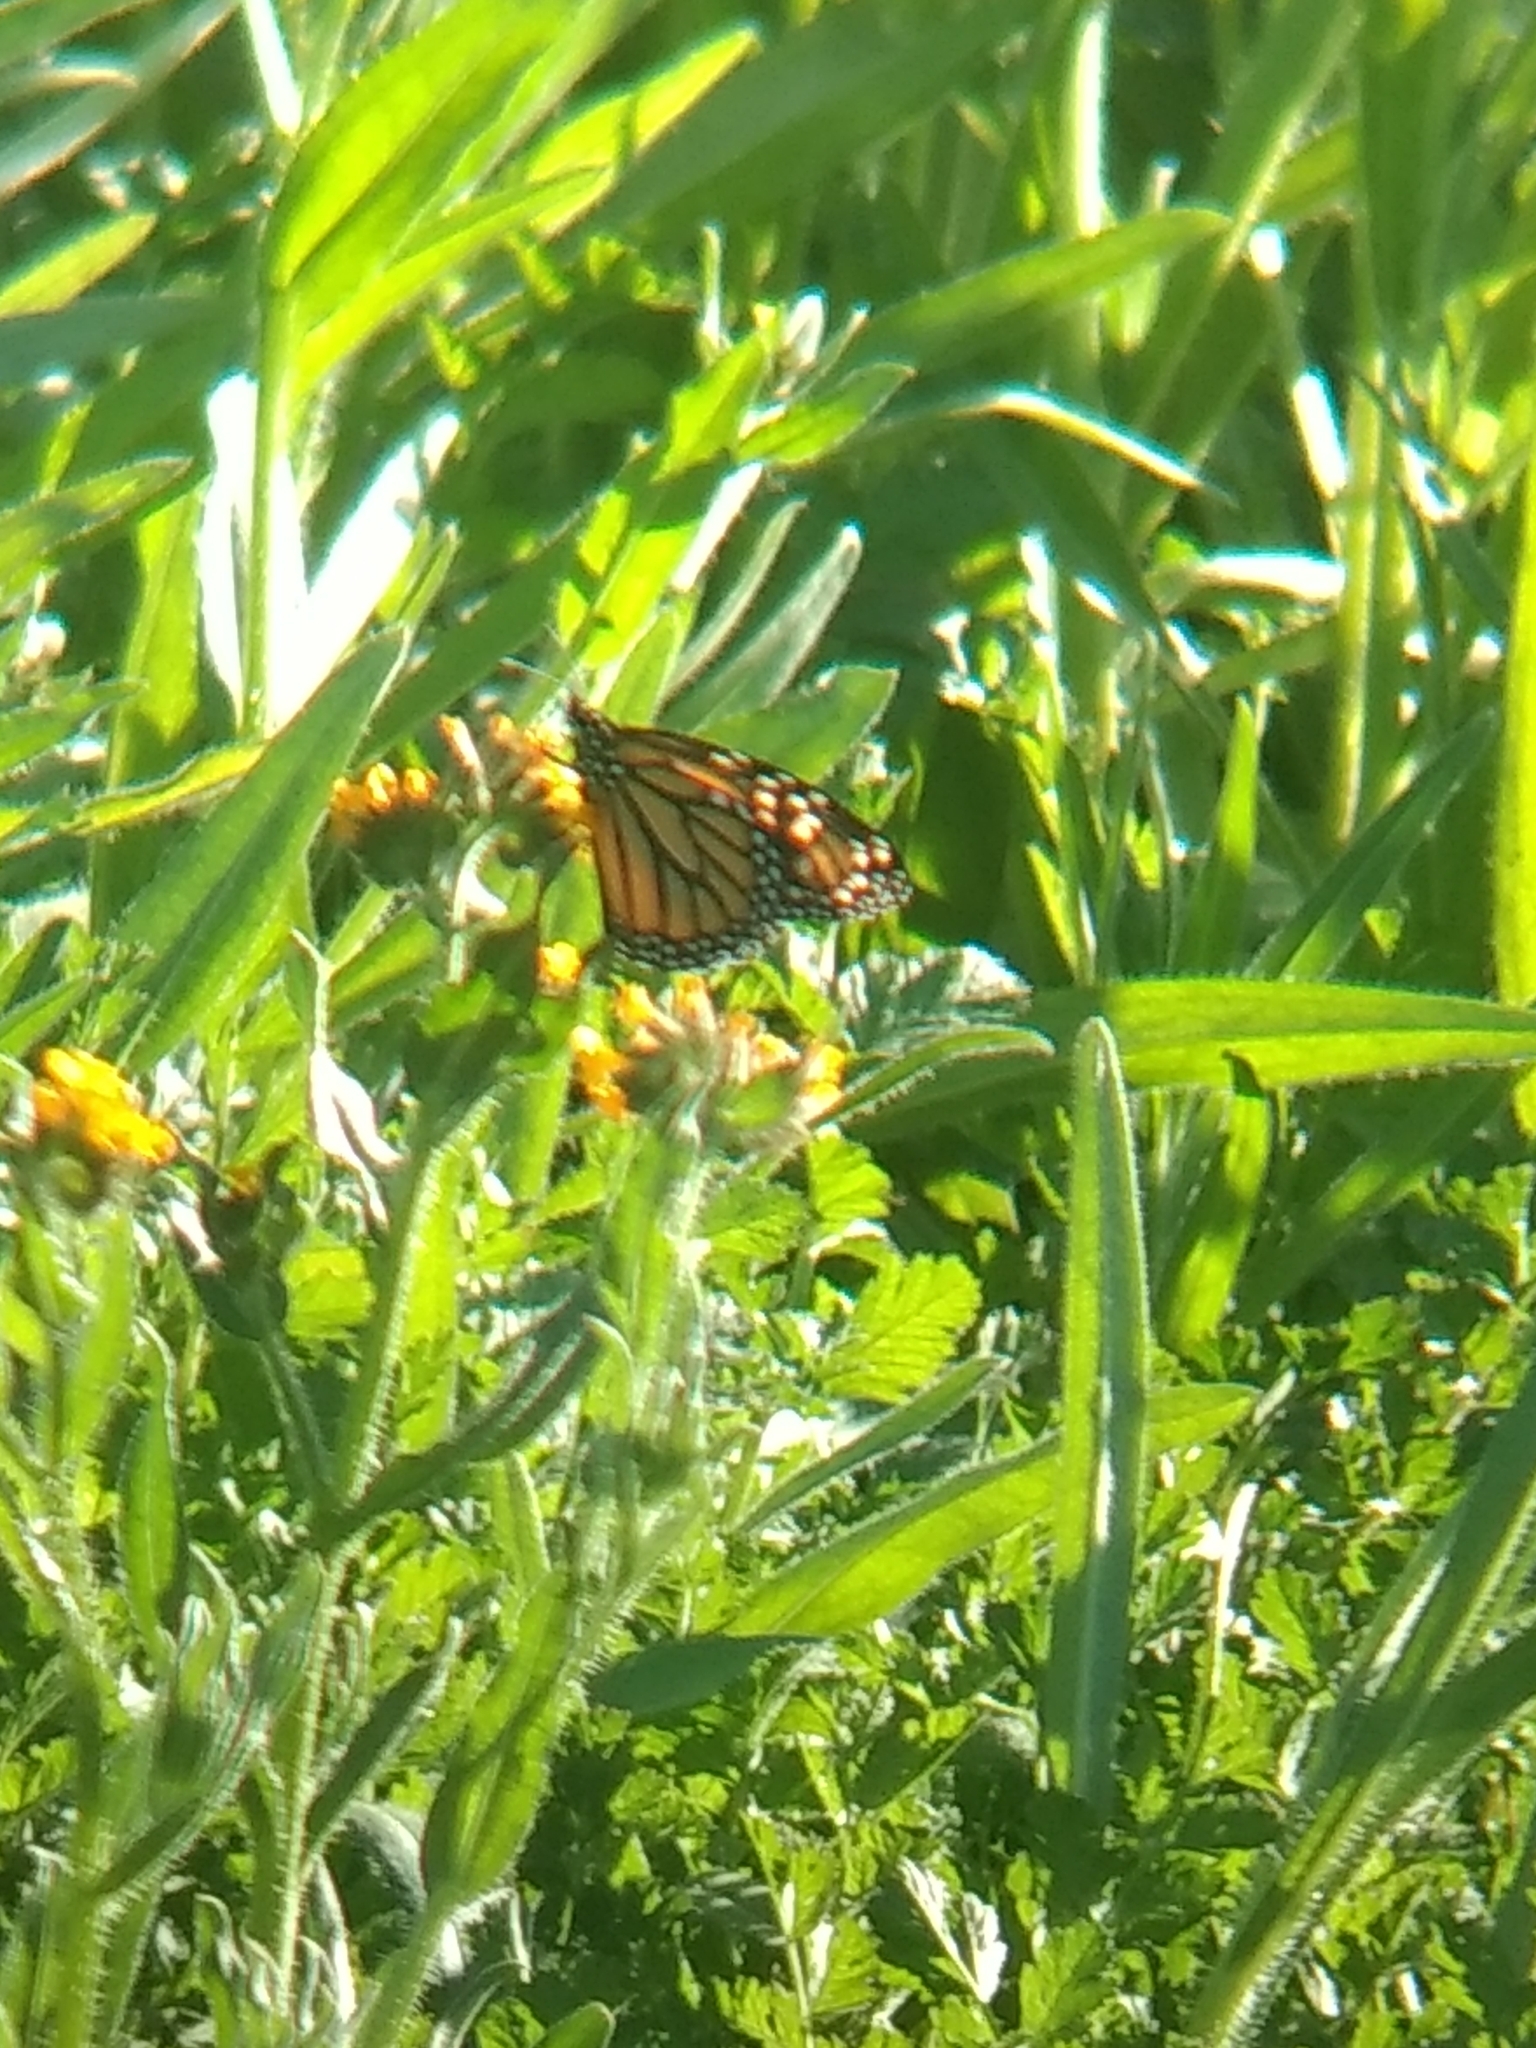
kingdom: Animalia
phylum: Arthropoda
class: Insecta
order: Lepidoptera
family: Nymphalidae
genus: Danaus
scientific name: Danaus plexippus
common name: Monarch
